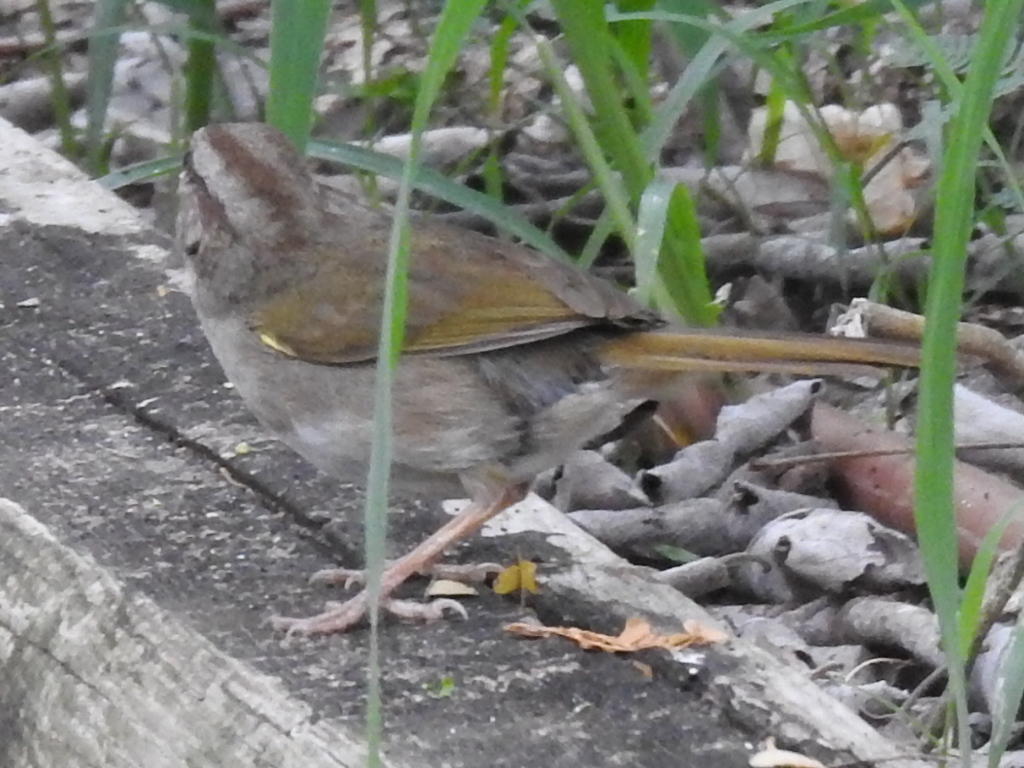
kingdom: Animalia
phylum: Chordata
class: Aves
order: Passeriformes
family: Passerellidae
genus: Arremonops
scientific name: Arremonops rufivirgatus
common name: Olive sparrow
